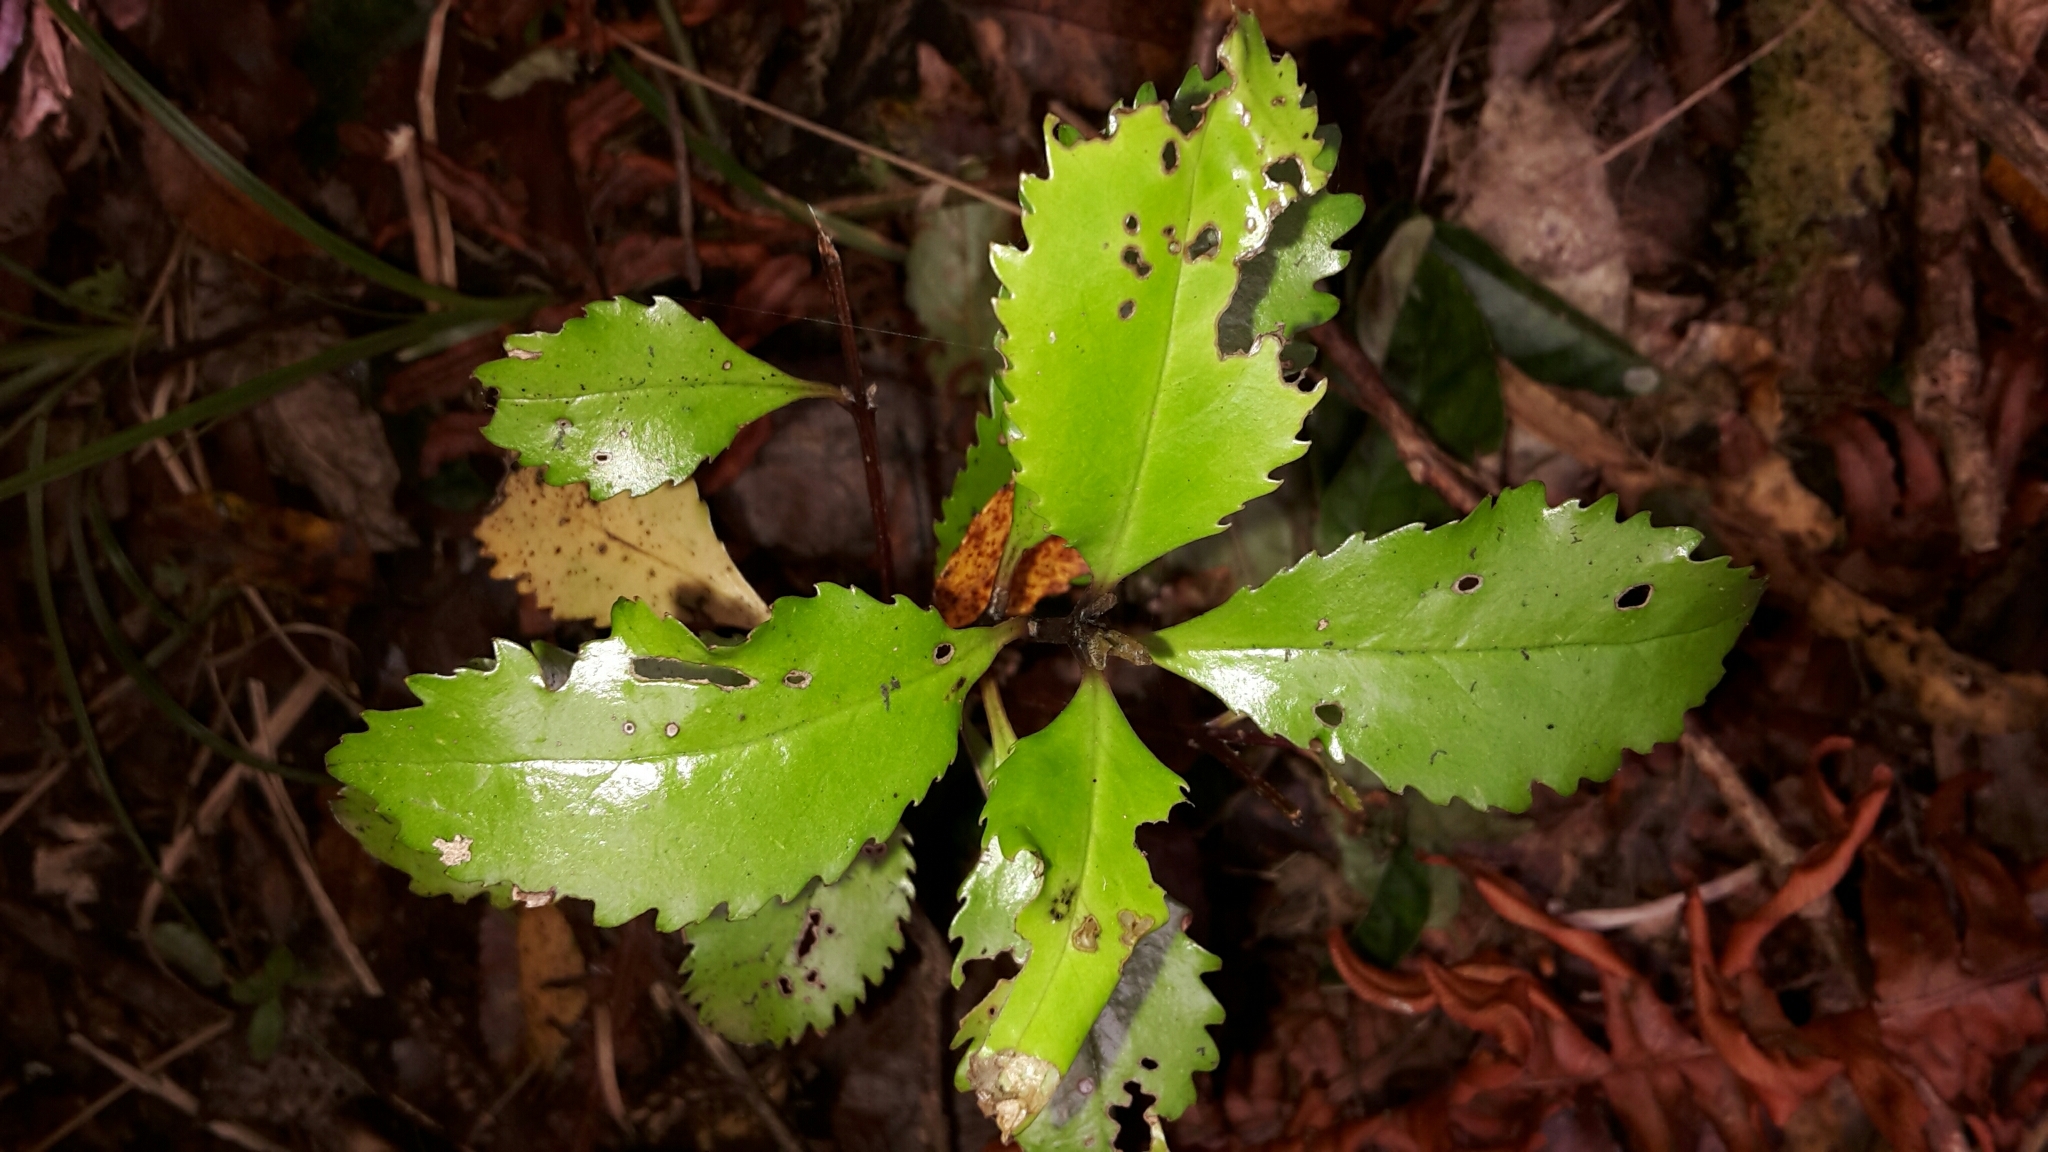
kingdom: Plantae
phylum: Tracheophyta
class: Magnoliopsida
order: Laurales
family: Atherospermataceae
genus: Laurelia
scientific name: Laurelia novae-zelandiae
